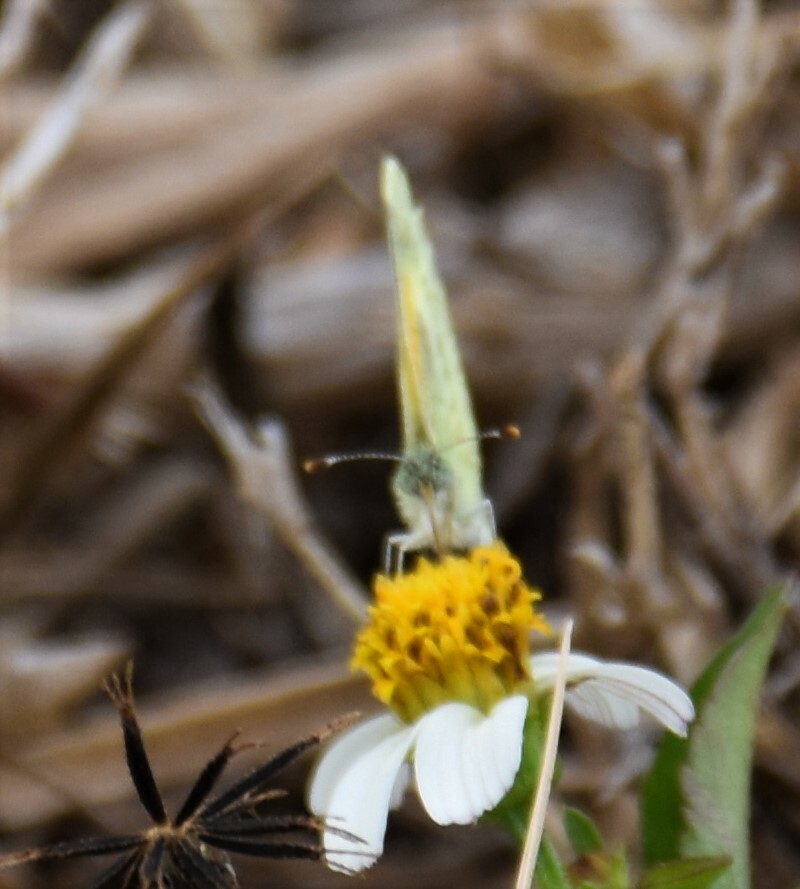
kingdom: Animalia
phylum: Arthropoda
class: Insecta
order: Lepidoptera
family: Pieridae
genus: Nathalis
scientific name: Nathalis iole
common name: Dainty sulphur
